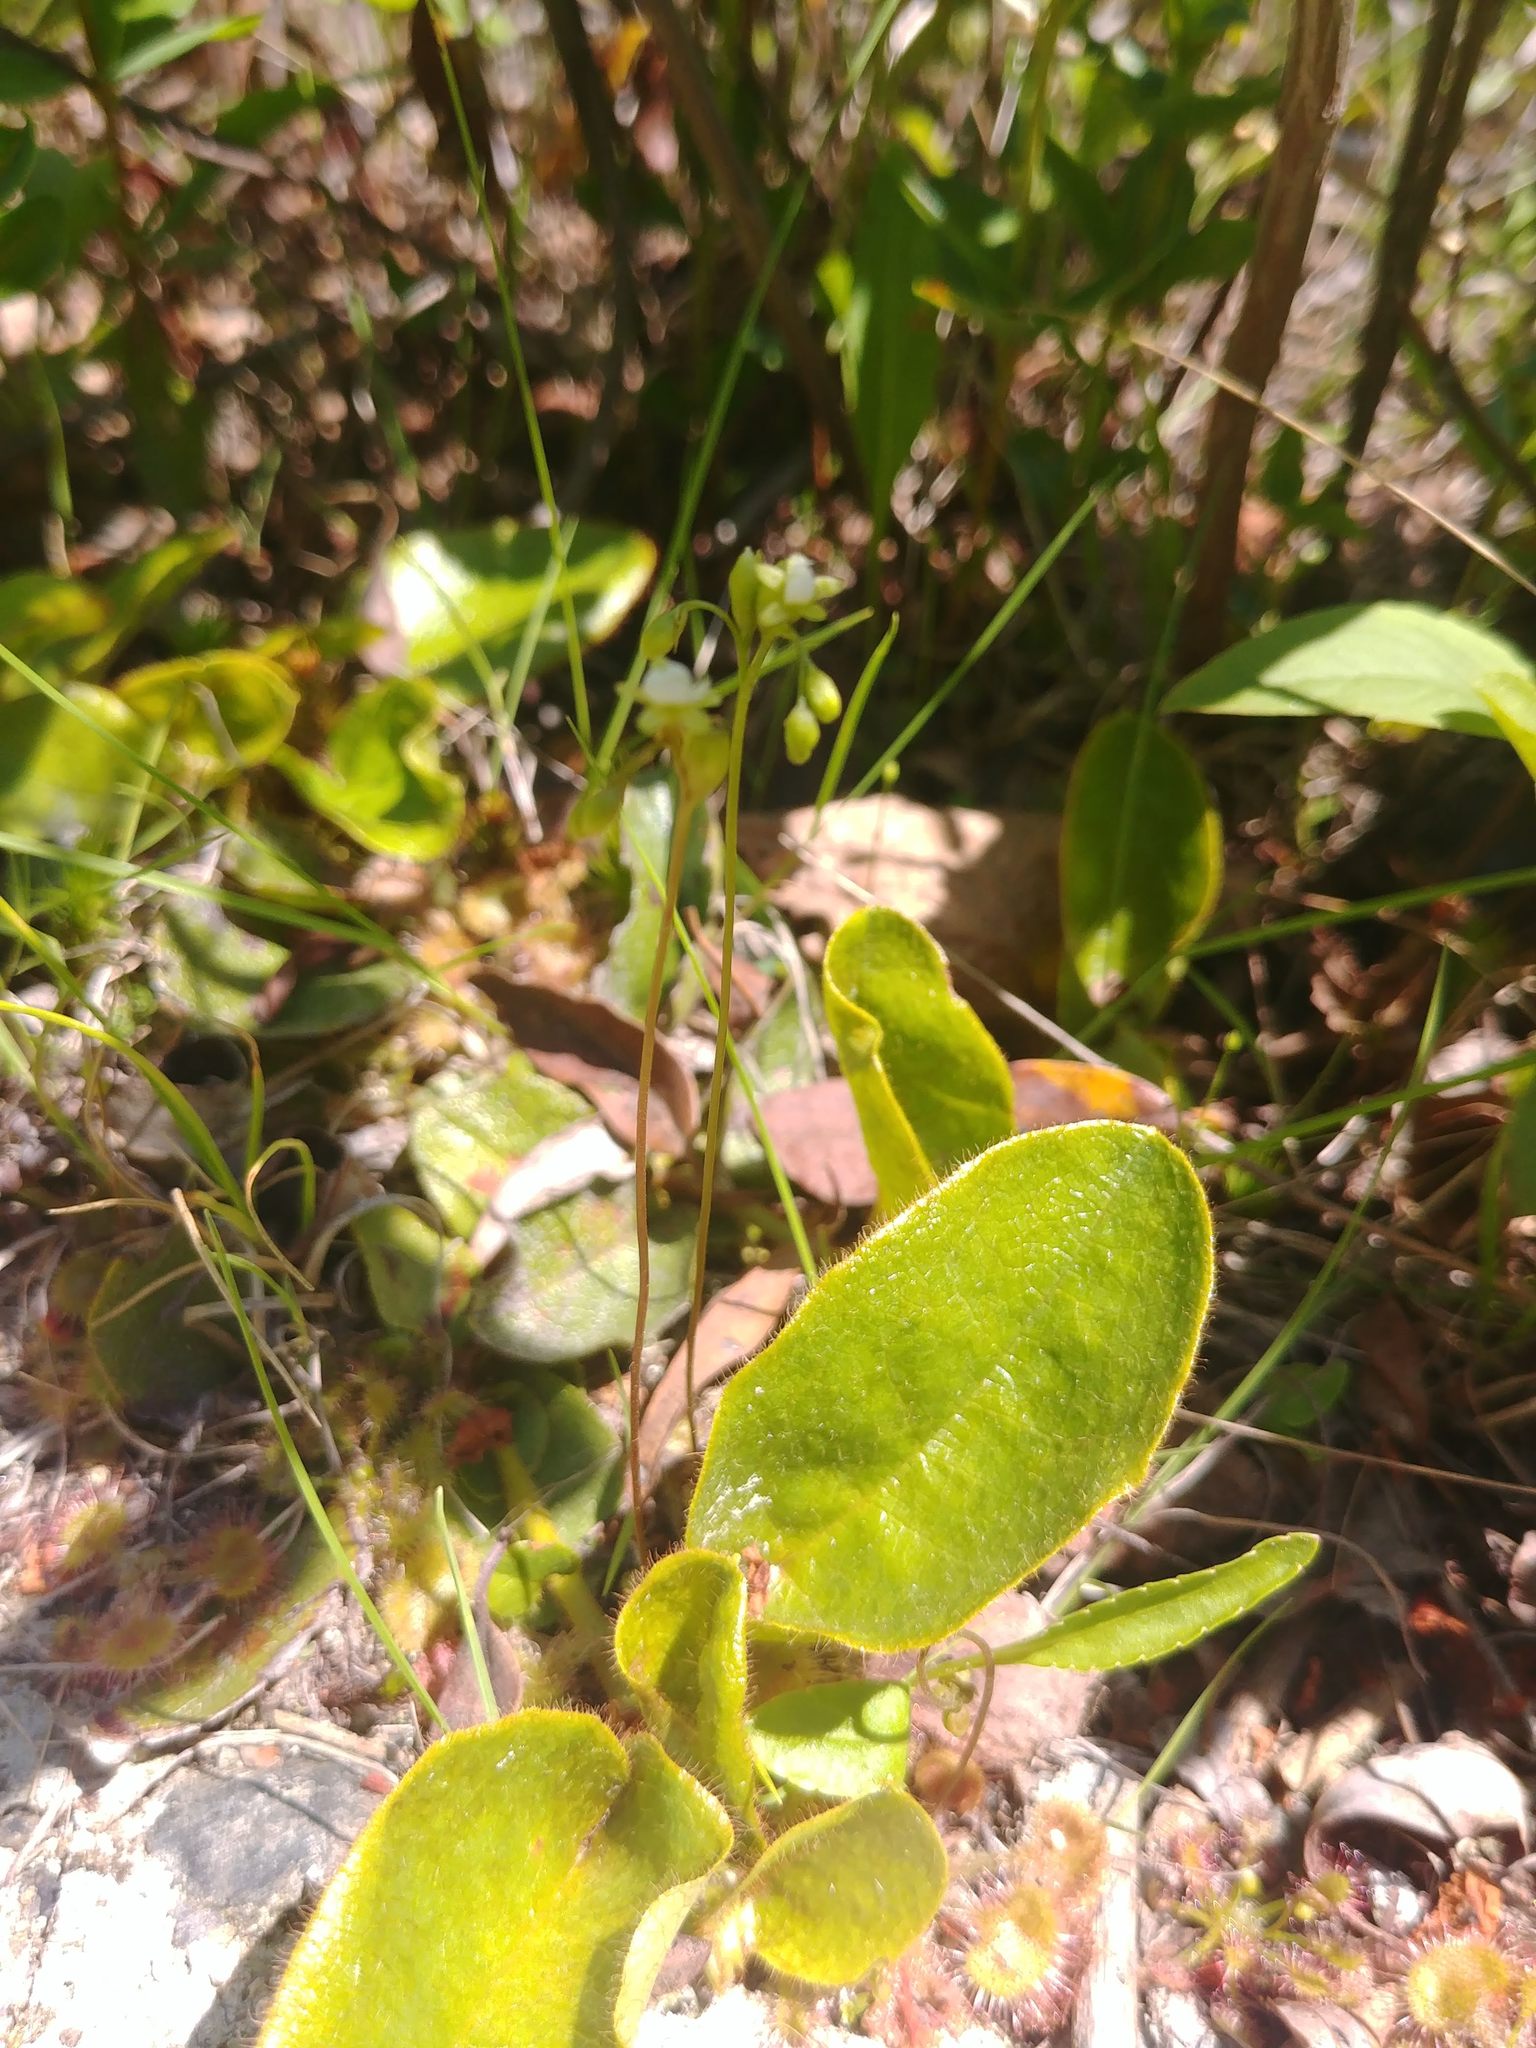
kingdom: Plantae
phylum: Tracheophyta
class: Magnoliopsida
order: Ericales
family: Ericaceae
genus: Epigaea
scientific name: Epigaea repens
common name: Gravelroot
